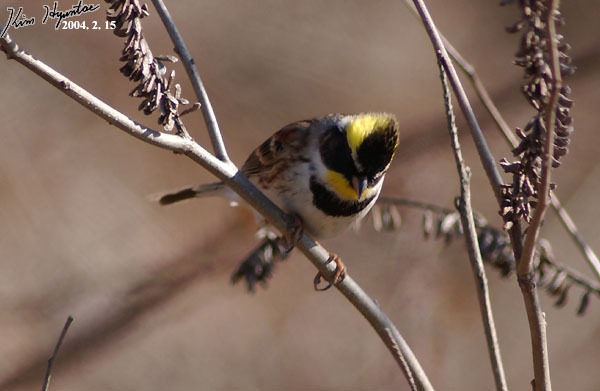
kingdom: Animalia
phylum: Chordata
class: Aves
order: Passeriformes
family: Emberizidae
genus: Emberiza
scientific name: Emberiza elegans
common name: Yellow-throated bunting
